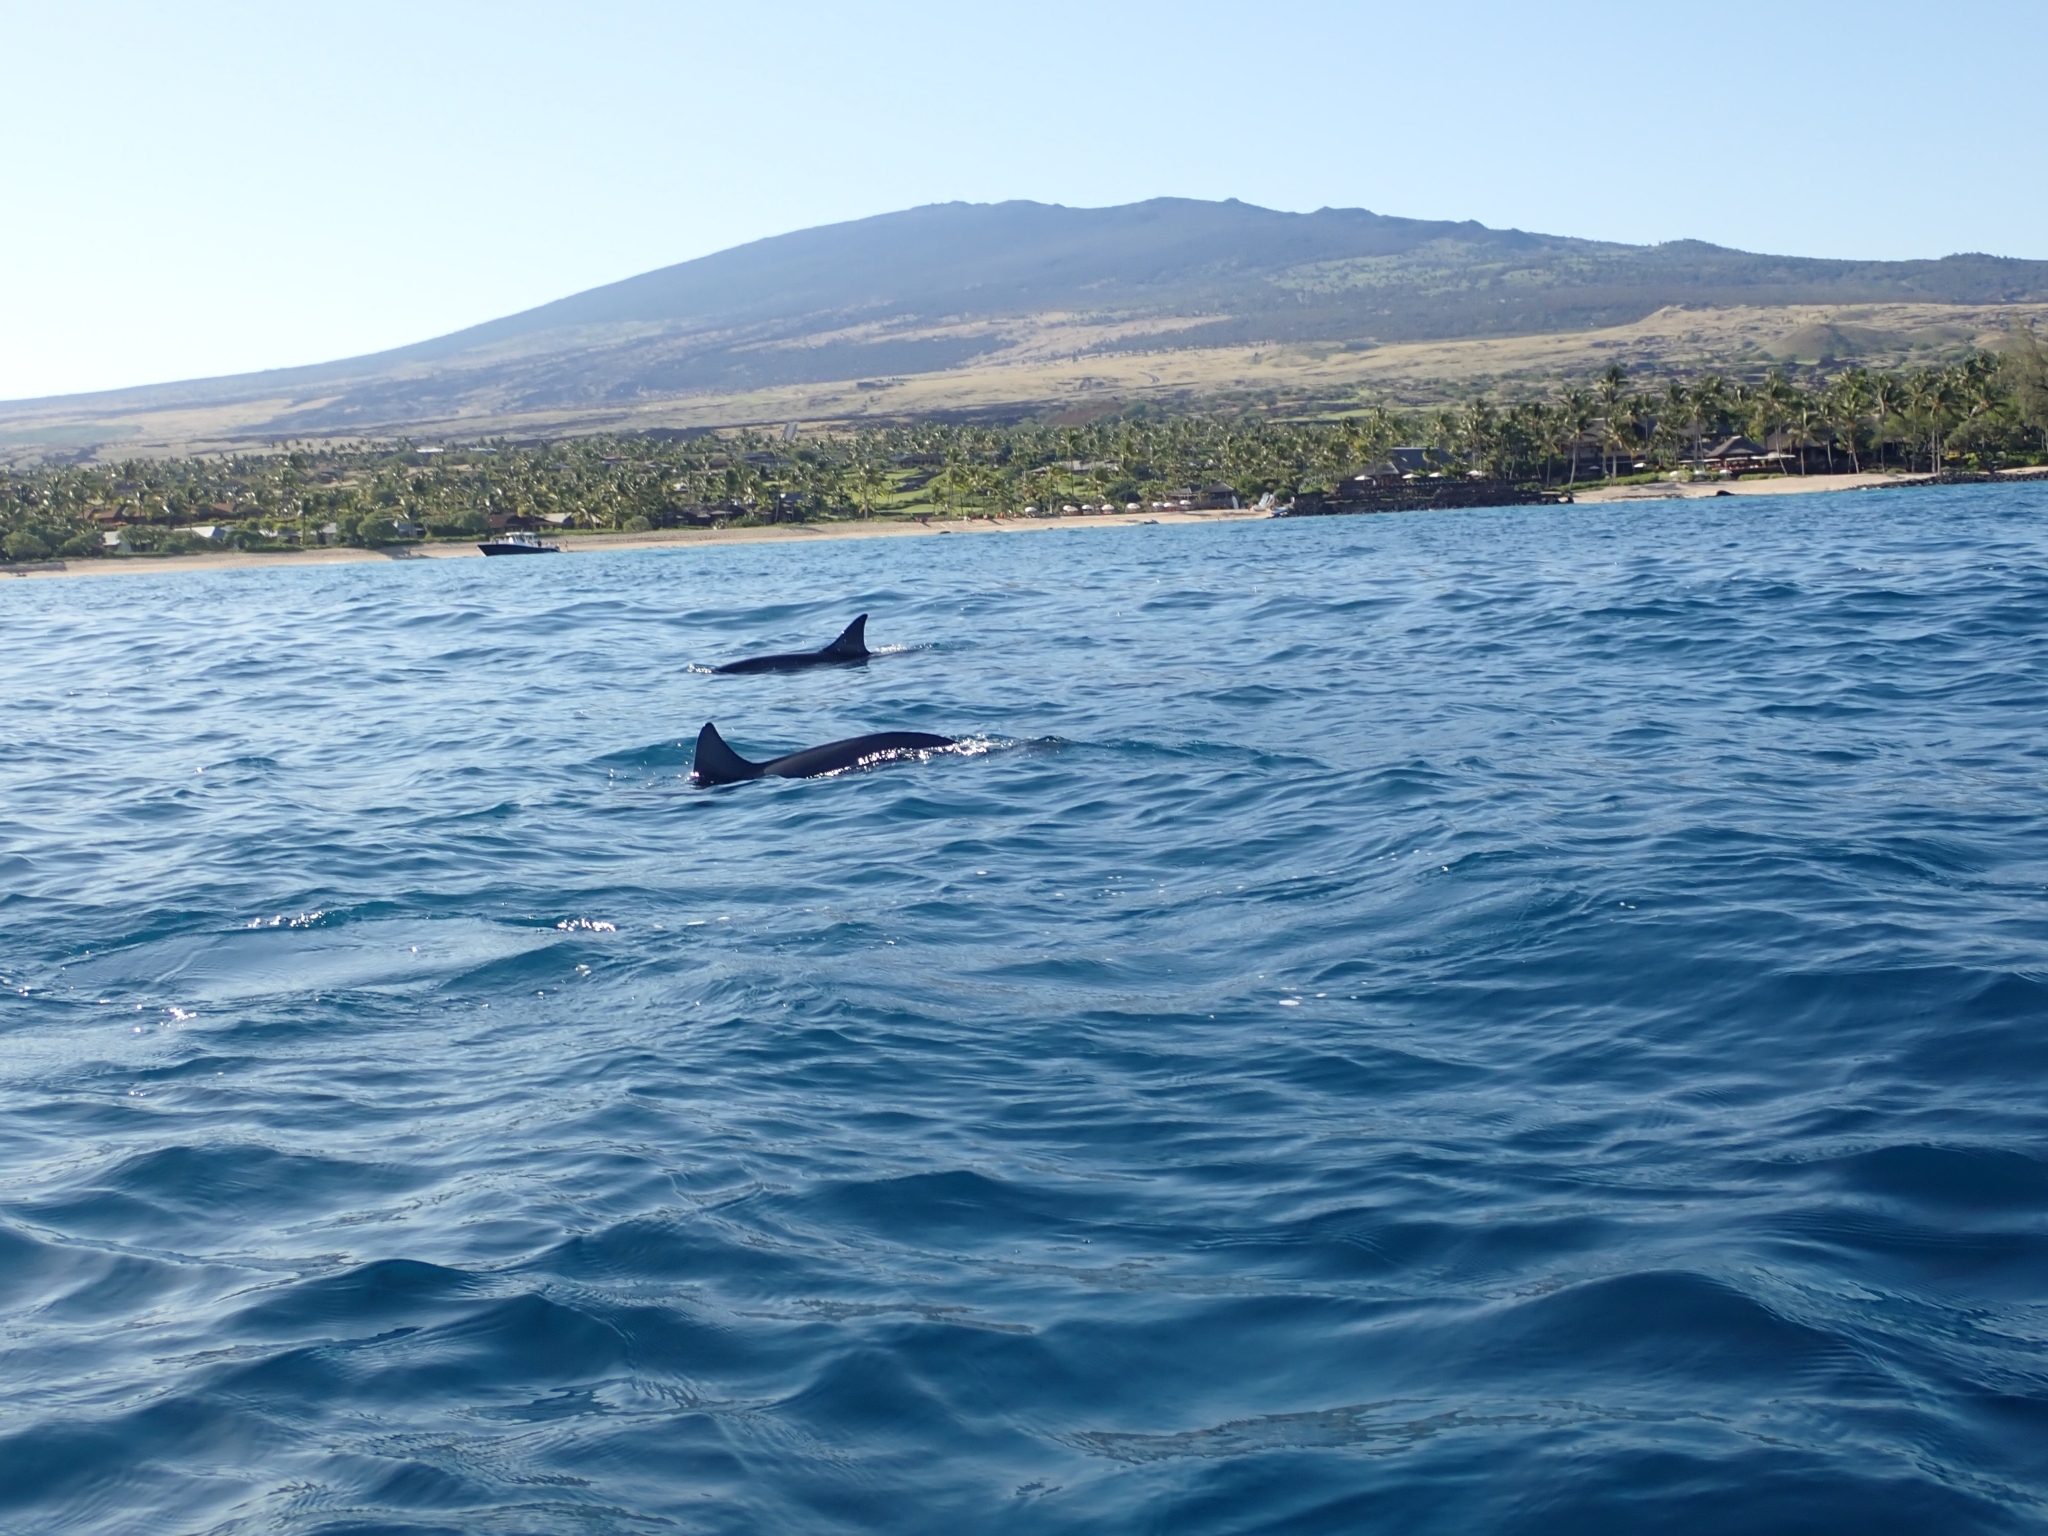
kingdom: Animalia
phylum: Chordata
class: Mammalia
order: Cetacea
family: Delphinidae
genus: Stenella
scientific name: Stenella longirostris
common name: Spinner dolphin
